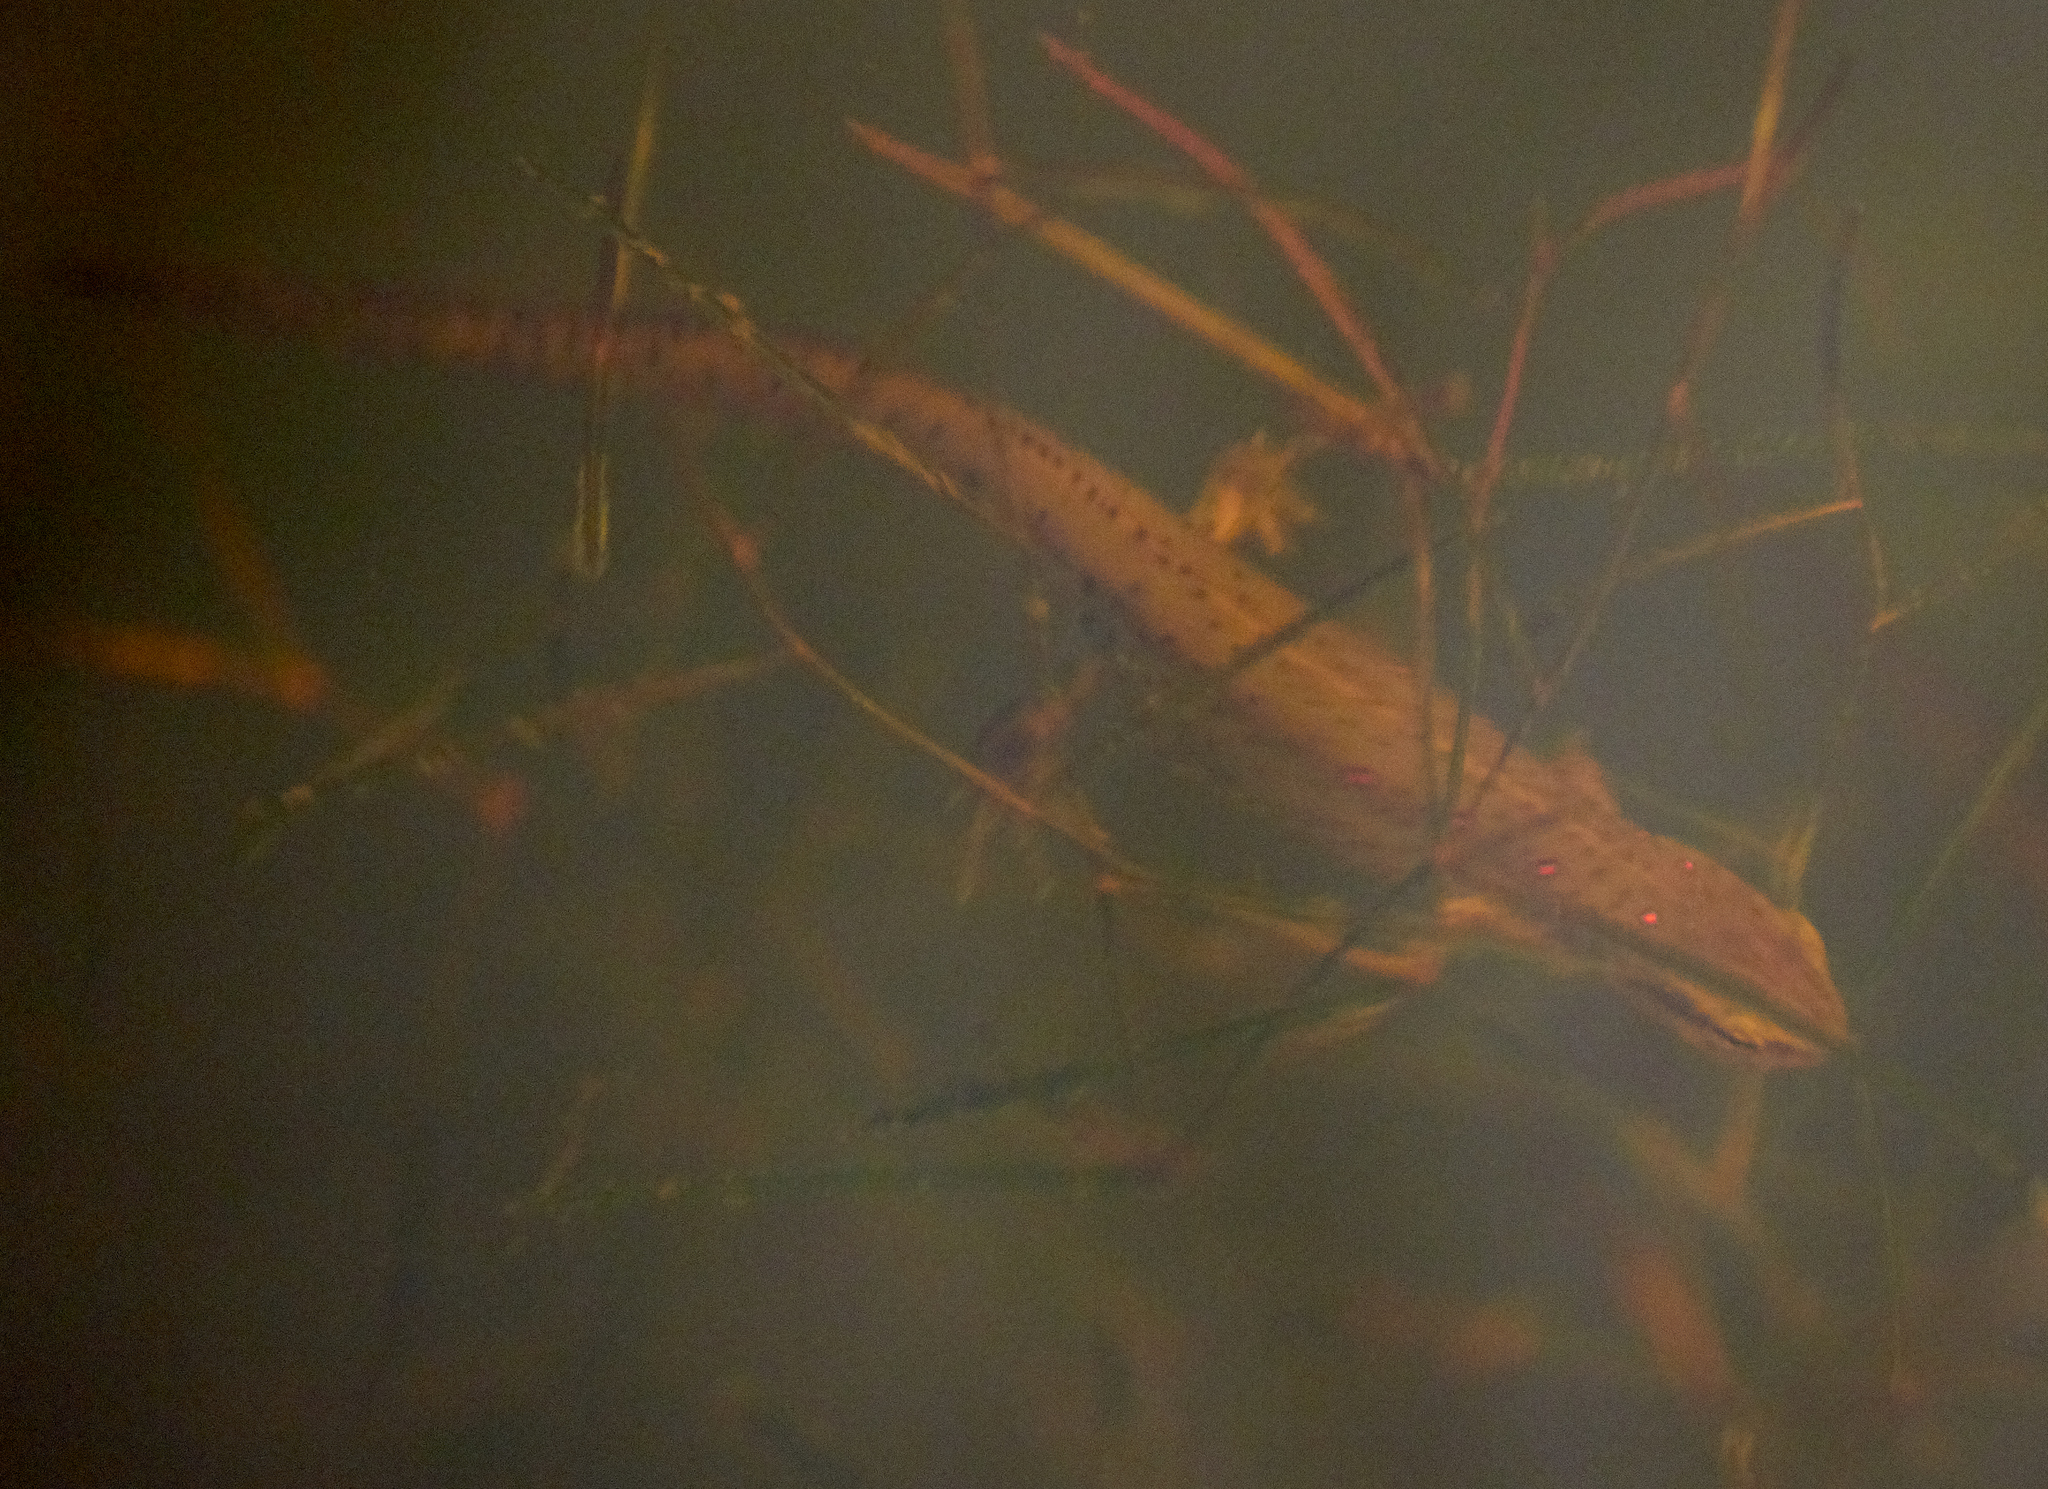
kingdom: Animalia
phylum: Chordata
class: Amphibia
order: Caudata
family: Salamandridae
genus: Notophthalmus
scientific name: Notophthalmus viridescens
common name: Eastern newt
